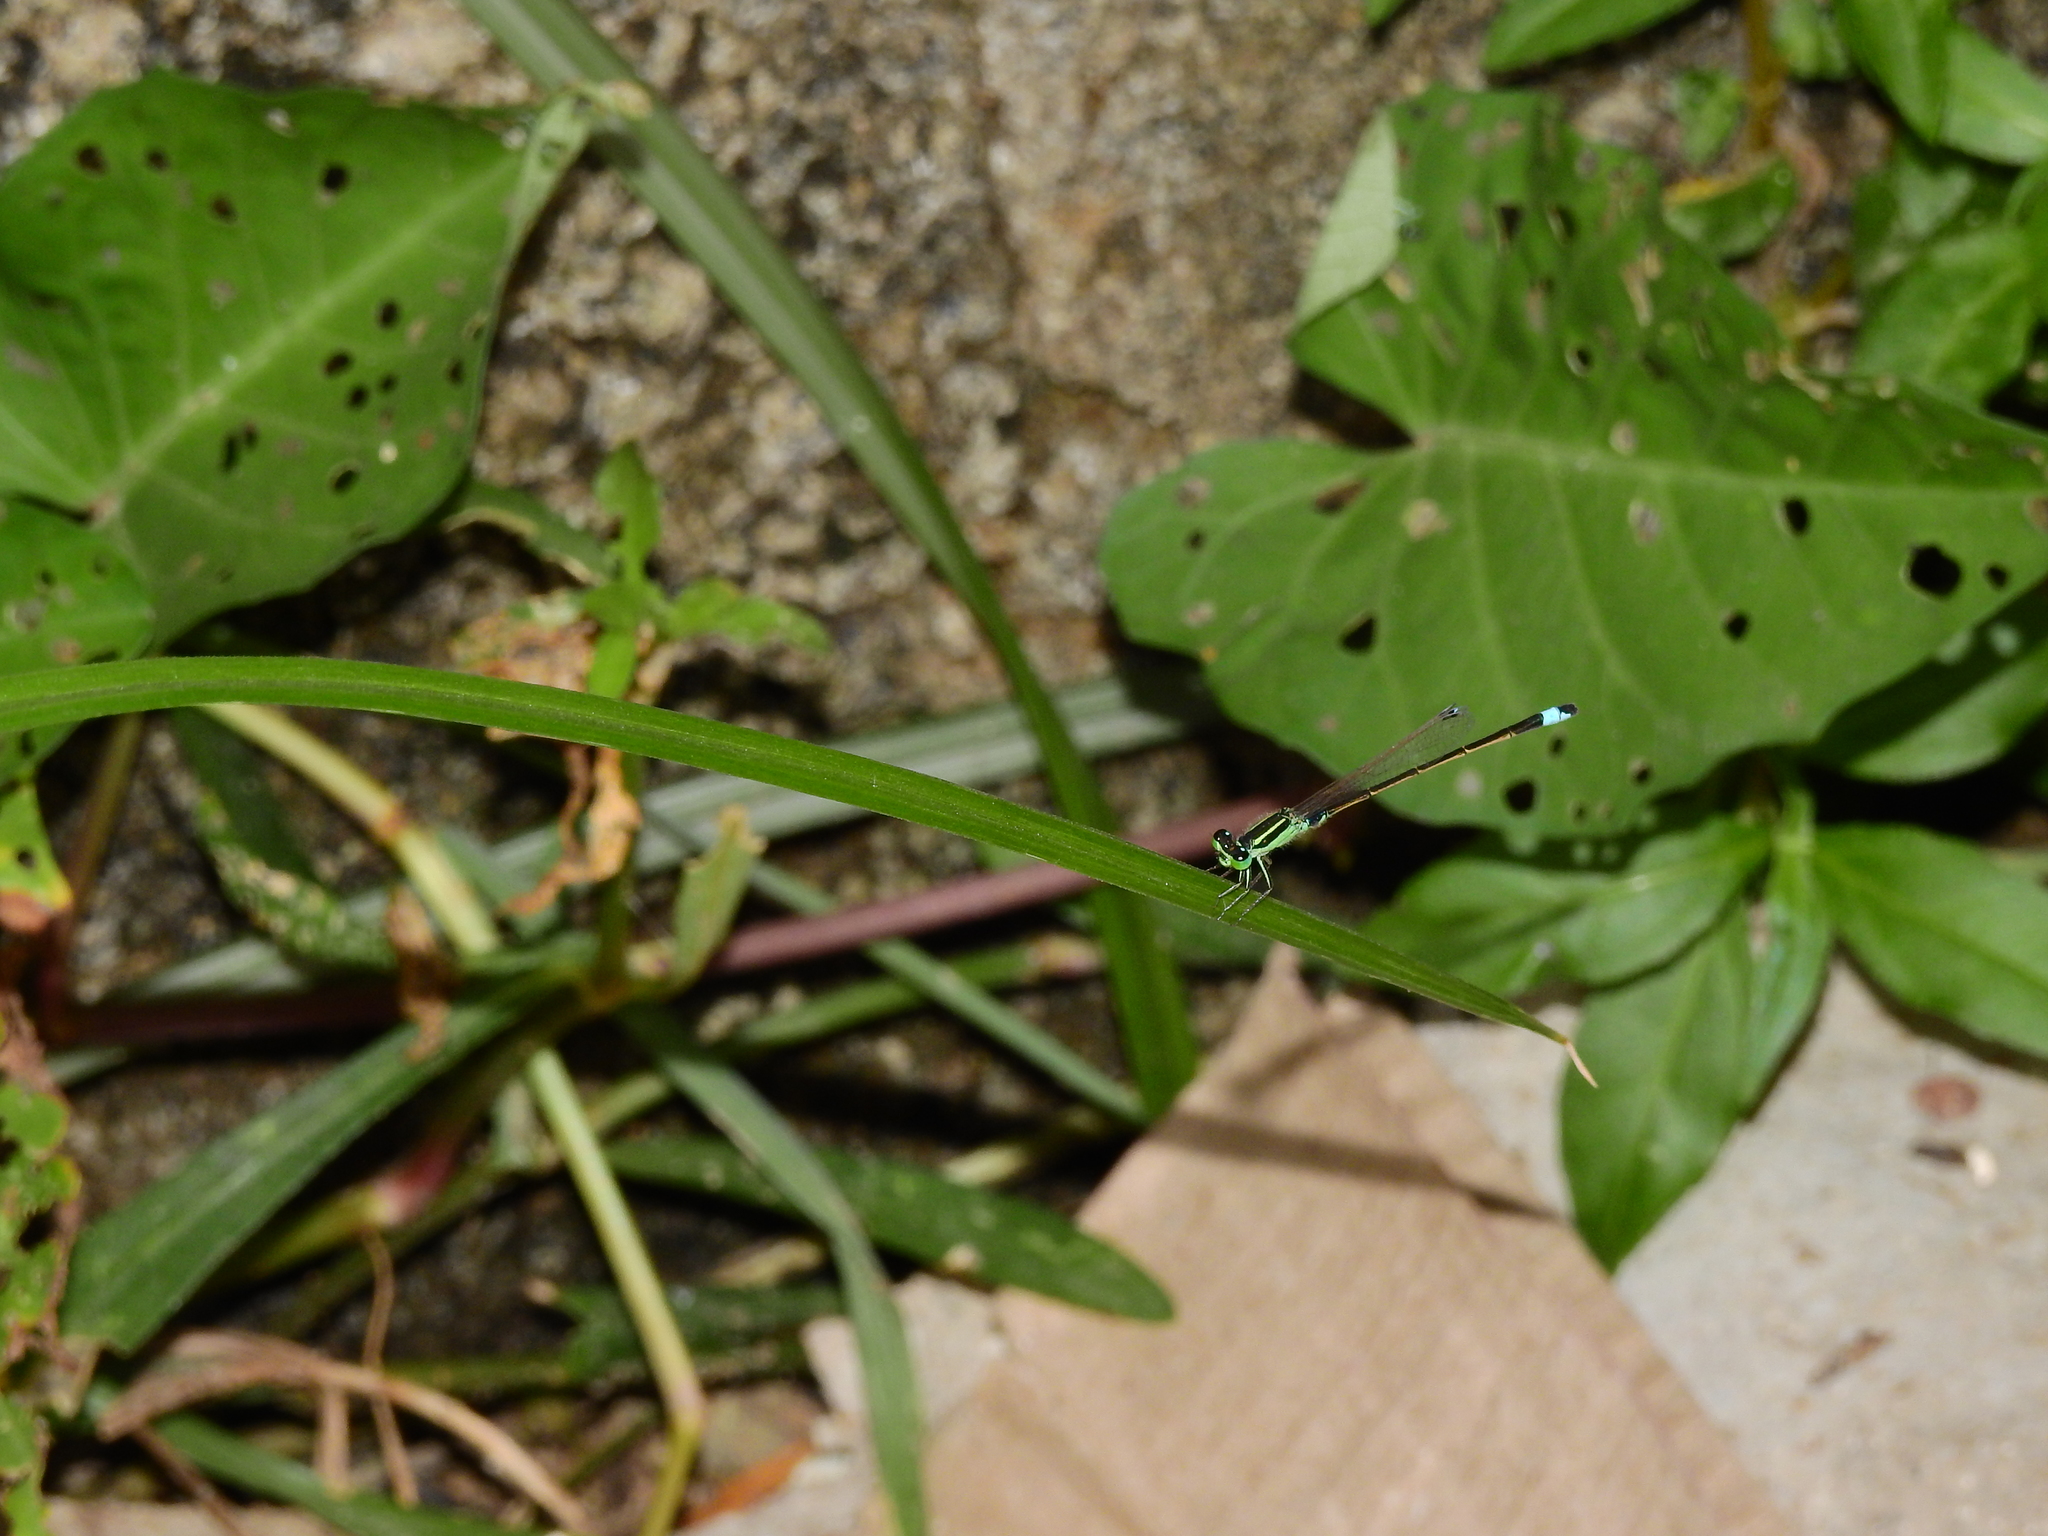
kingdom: Animalia
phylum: Arthropoda
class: Insecta
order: Odonata
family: Coenagrionidae
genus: Ischnura
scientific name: Ischnura senegalensis
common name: Tropical bluetail
